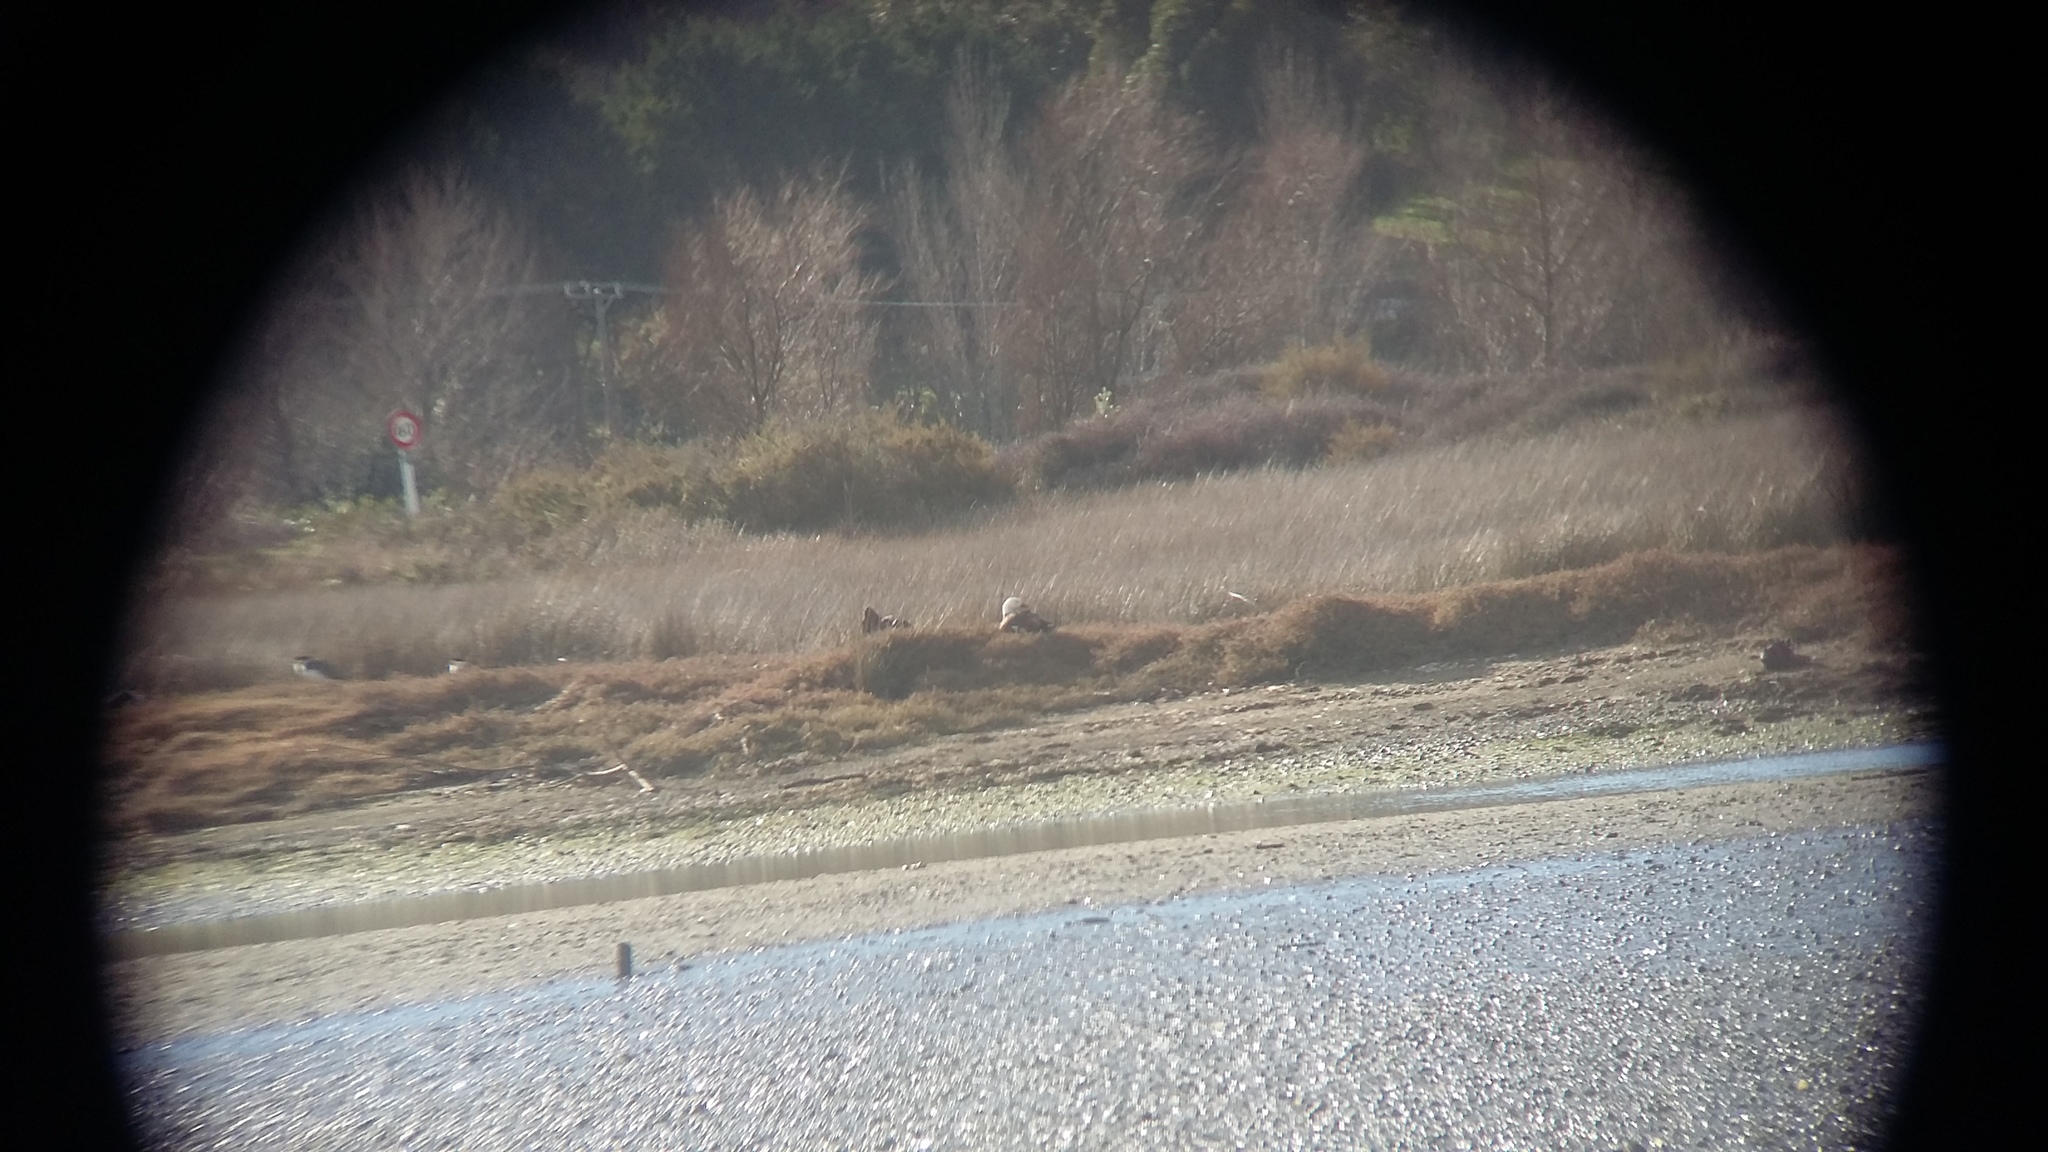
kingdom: Animalia
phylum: Chordata
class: Aves
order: Anseriformes
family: Anatidae
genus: Tadorna
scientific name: Tadorna variegata
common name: Paradise shelduck
